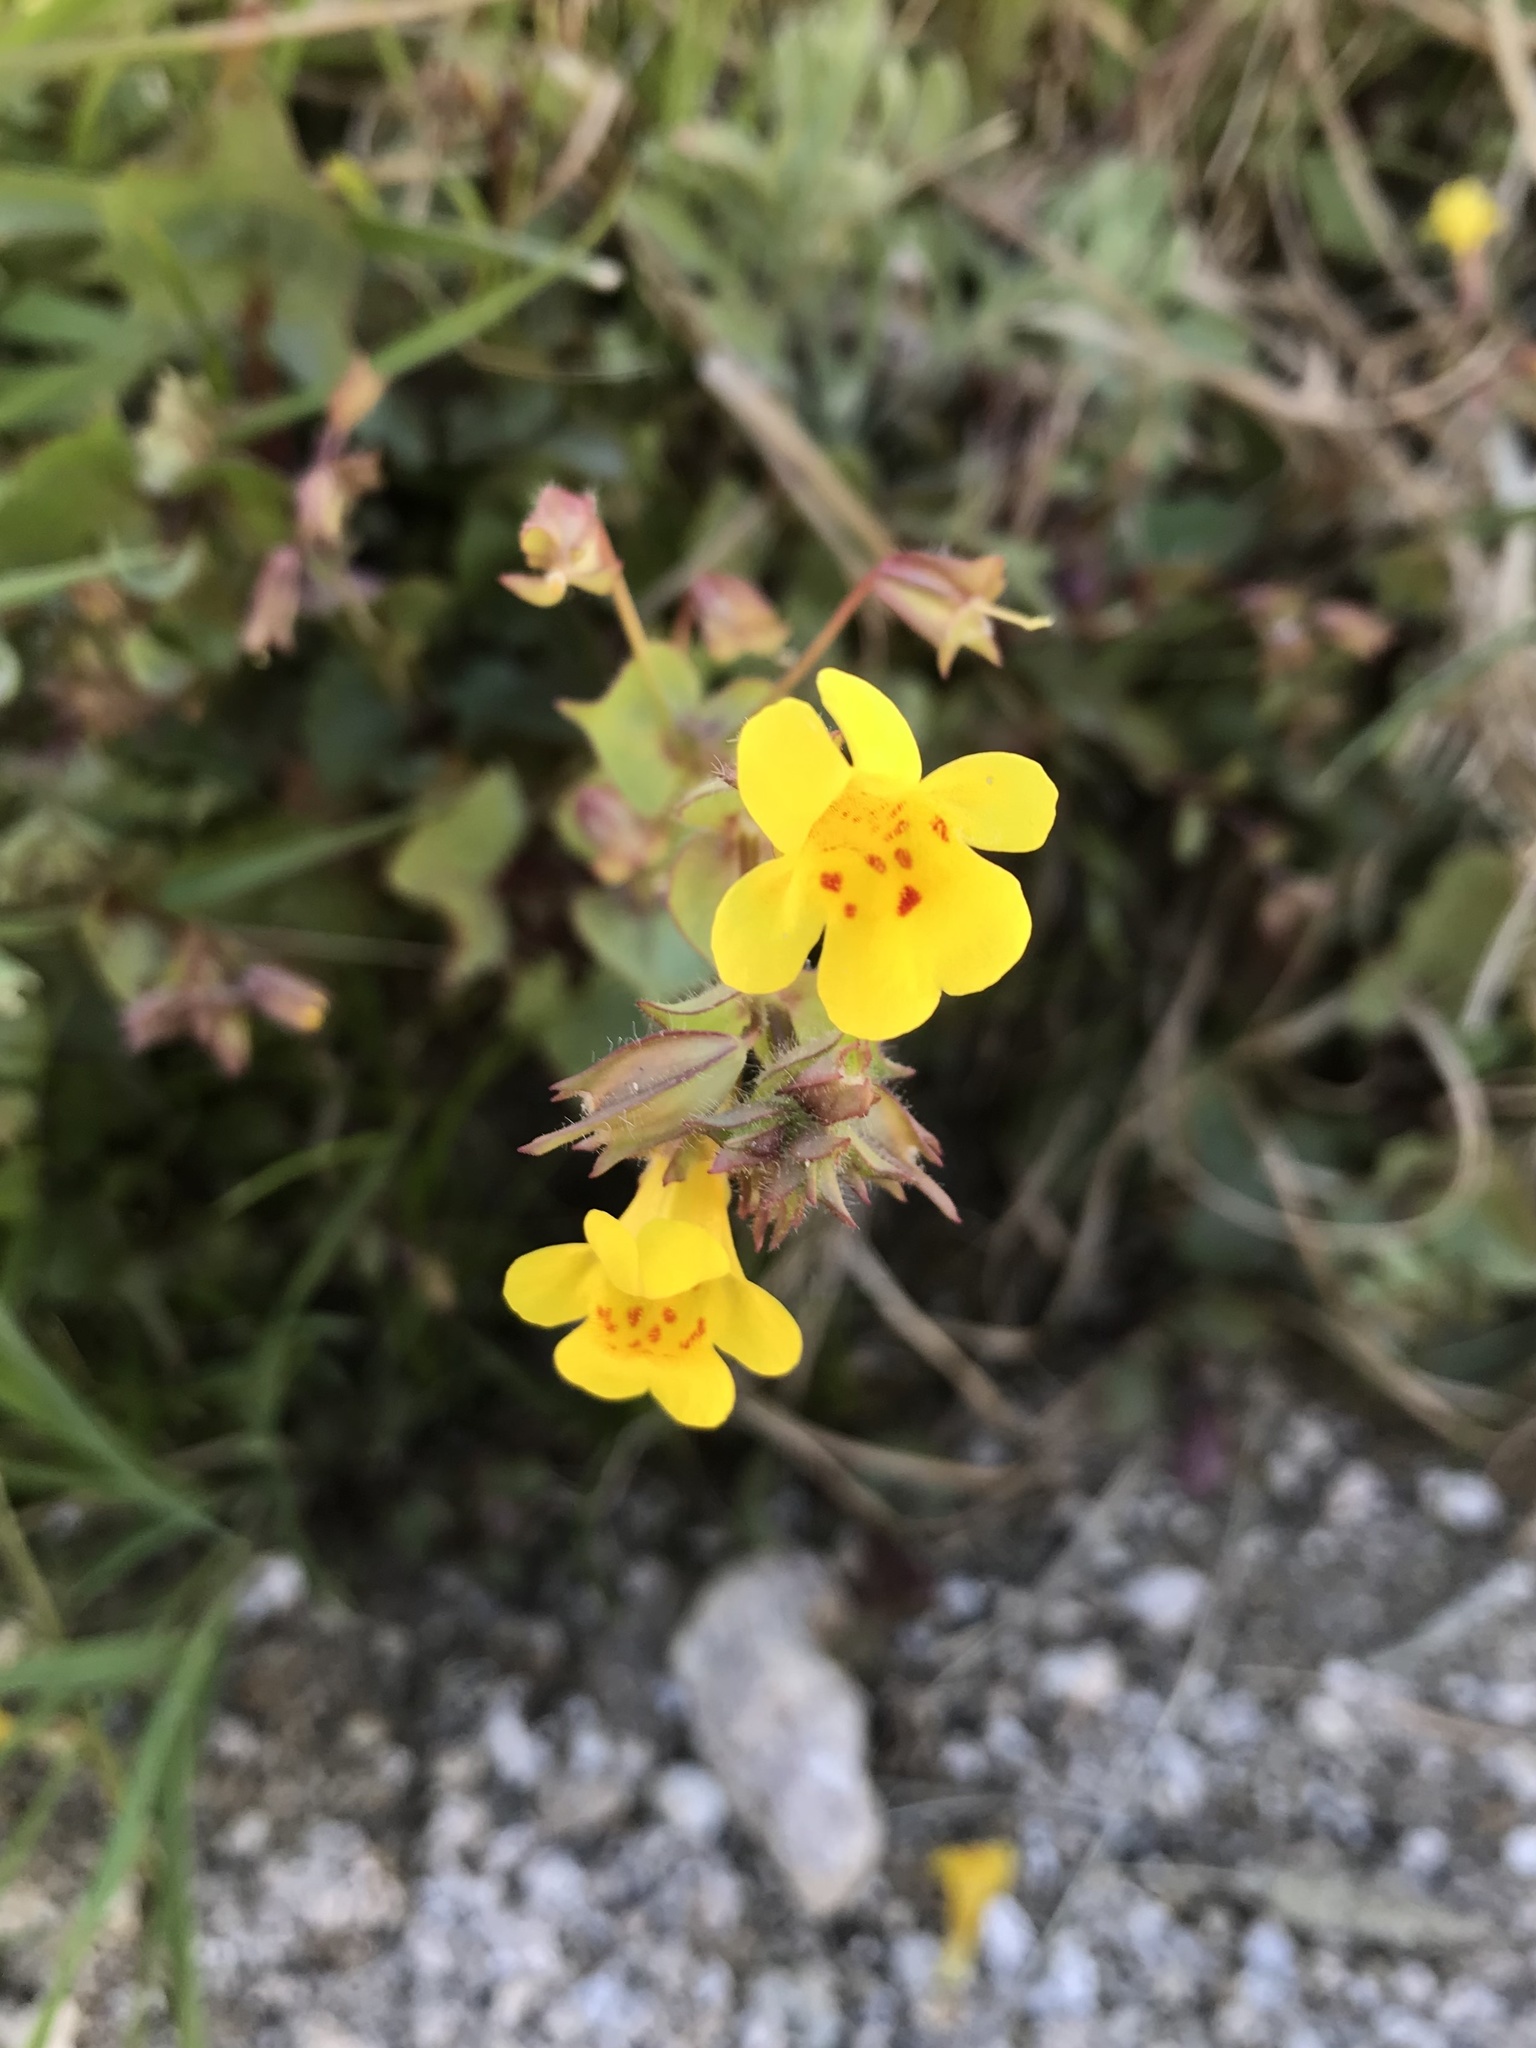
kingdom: Plantae
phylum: Tracheophyta
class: Magnoliopsida
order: Lamiales
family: Phrymaceae
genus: Erythranthe
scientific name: Erythranthe guttata
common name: Monkeyflower
